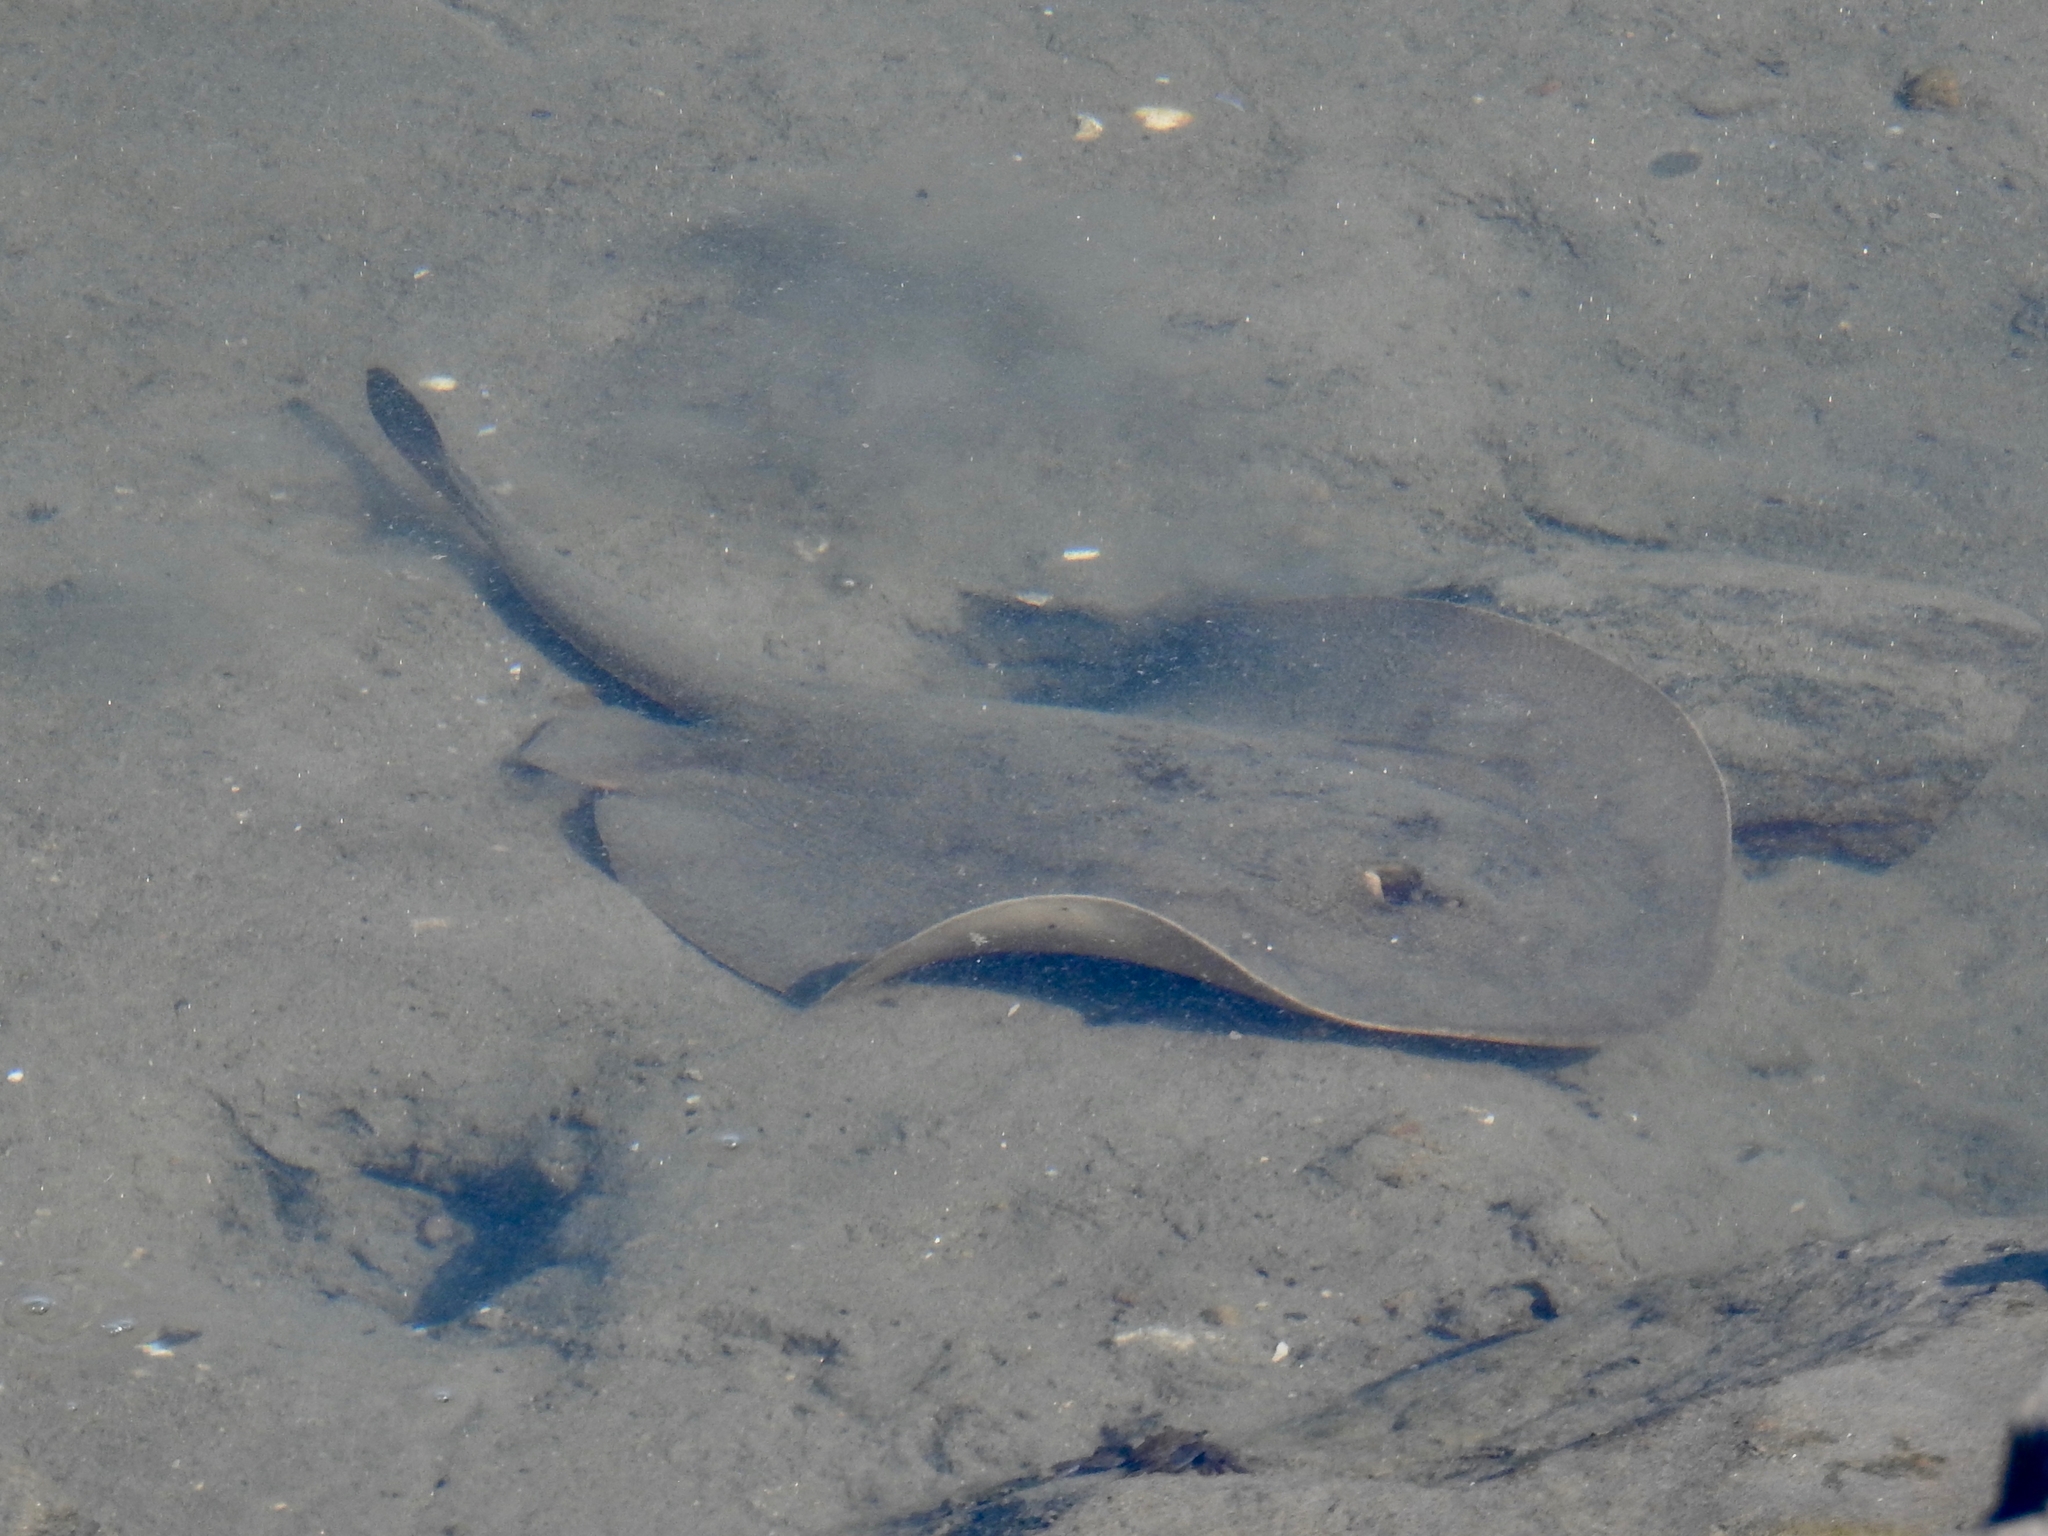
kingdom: Animalia
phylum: Chordata
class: Elasmobranchii
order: Myliobatiformes
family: Urolophidae
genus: Urolophus
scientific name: Urolophus halleri
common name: Round stingray
